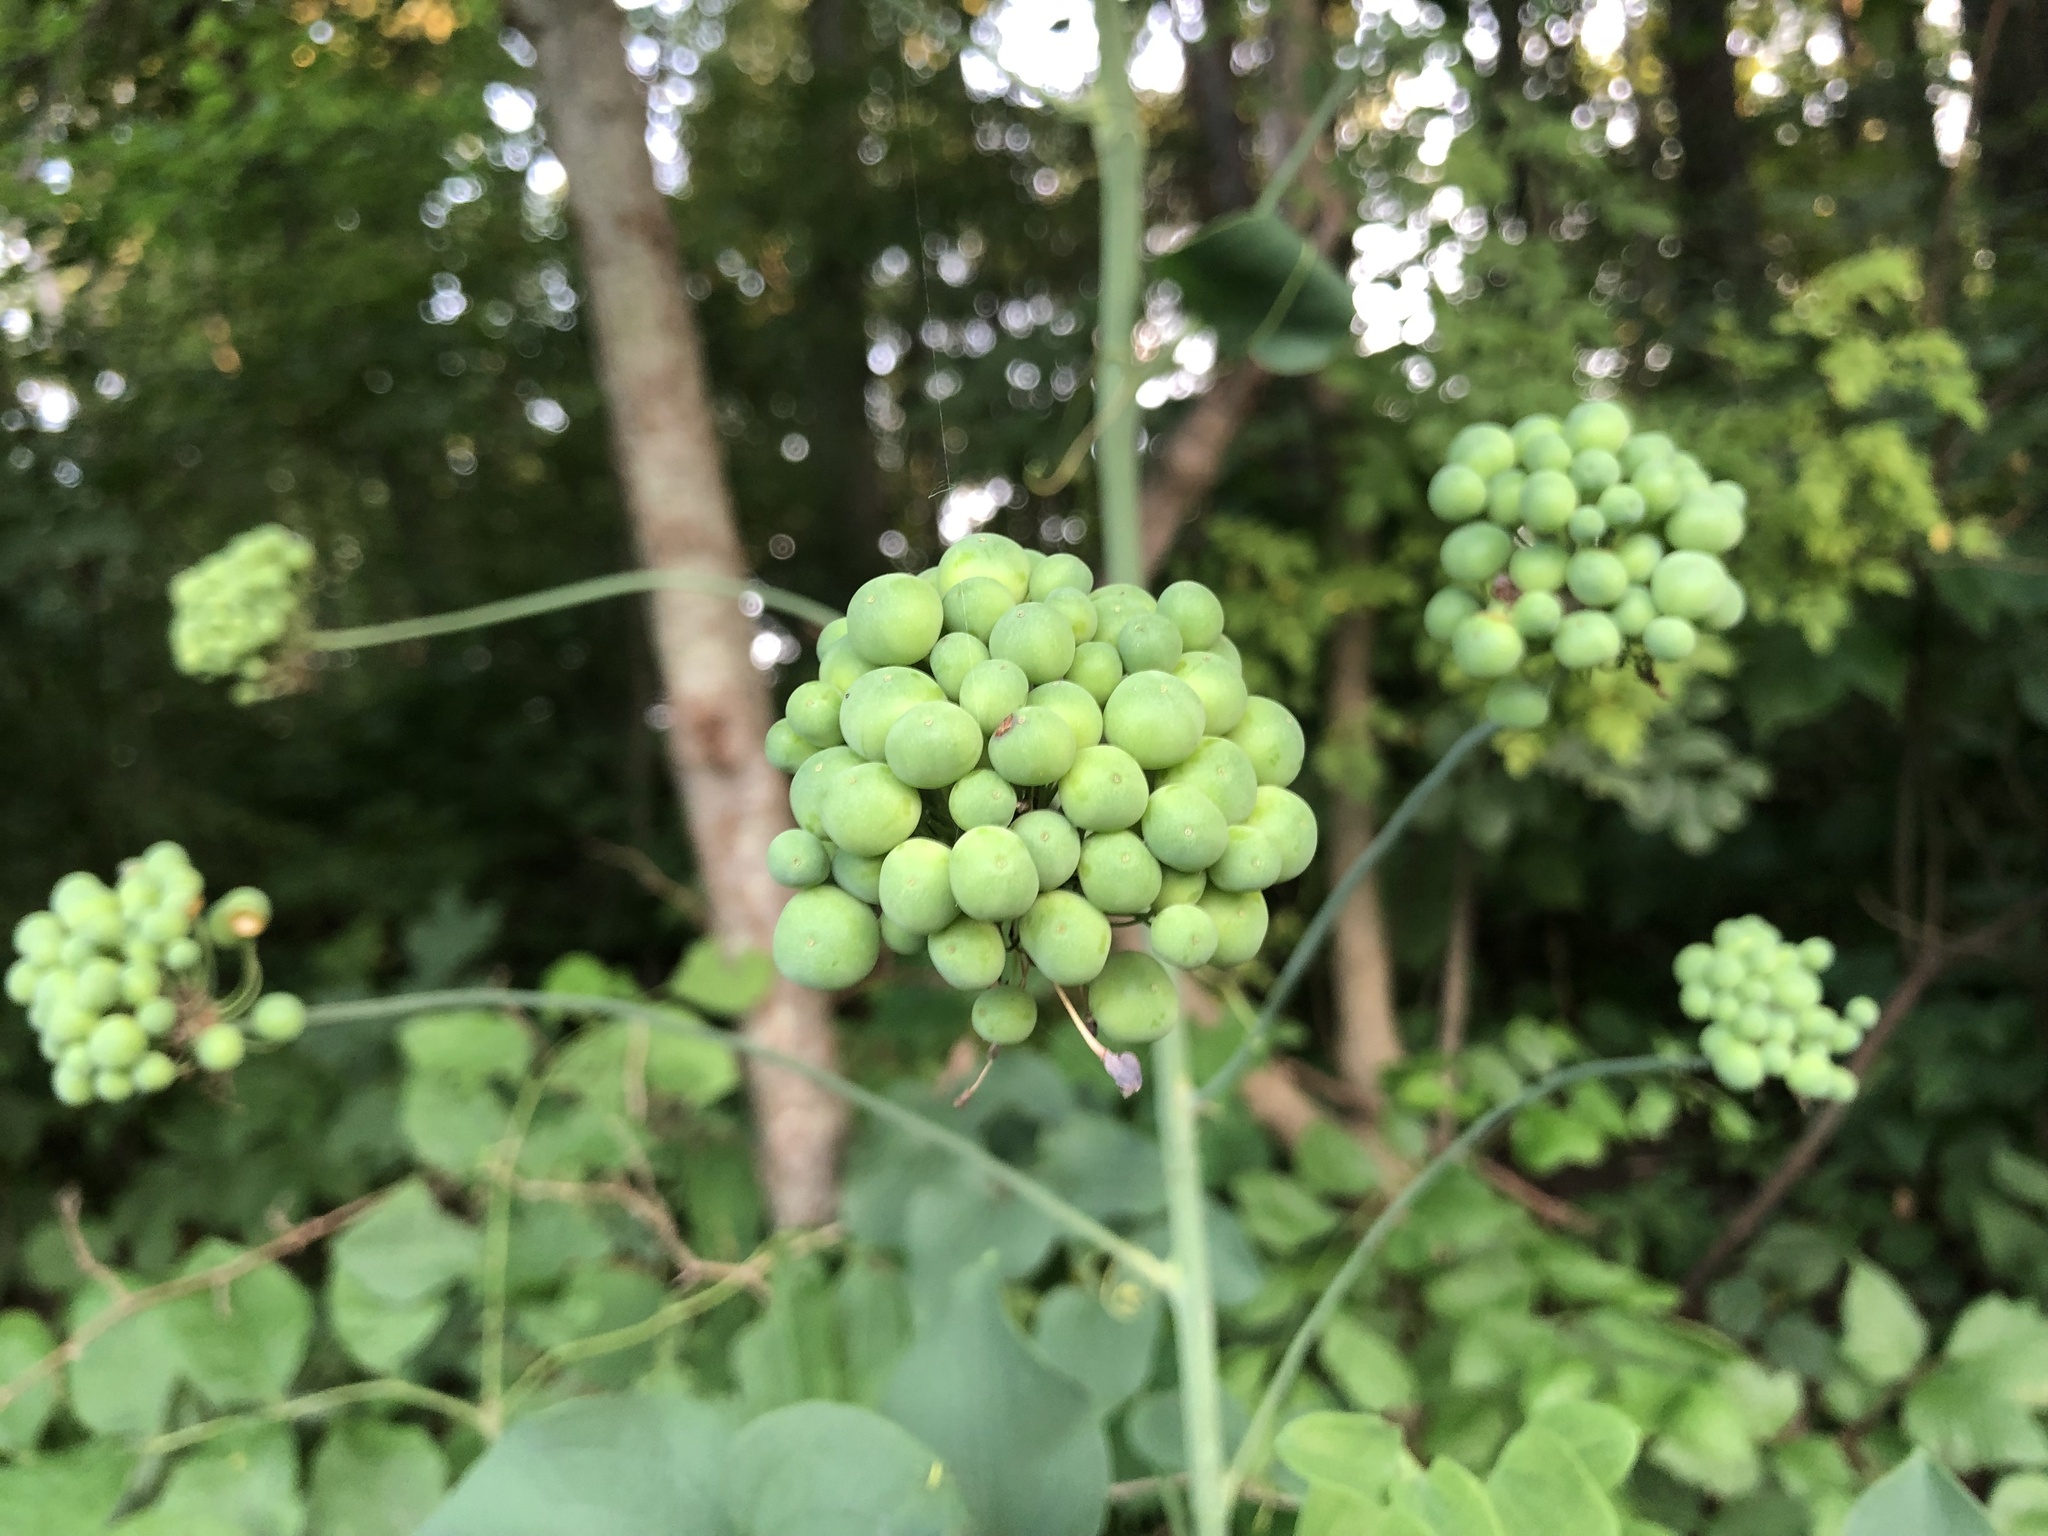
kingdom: Plantae
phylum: Tracheophyta
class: Liliopsida
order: Liliales
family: Smilacaceae
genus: Smilax
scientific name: Smilax illinoensis
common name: Illinois carrionflower
